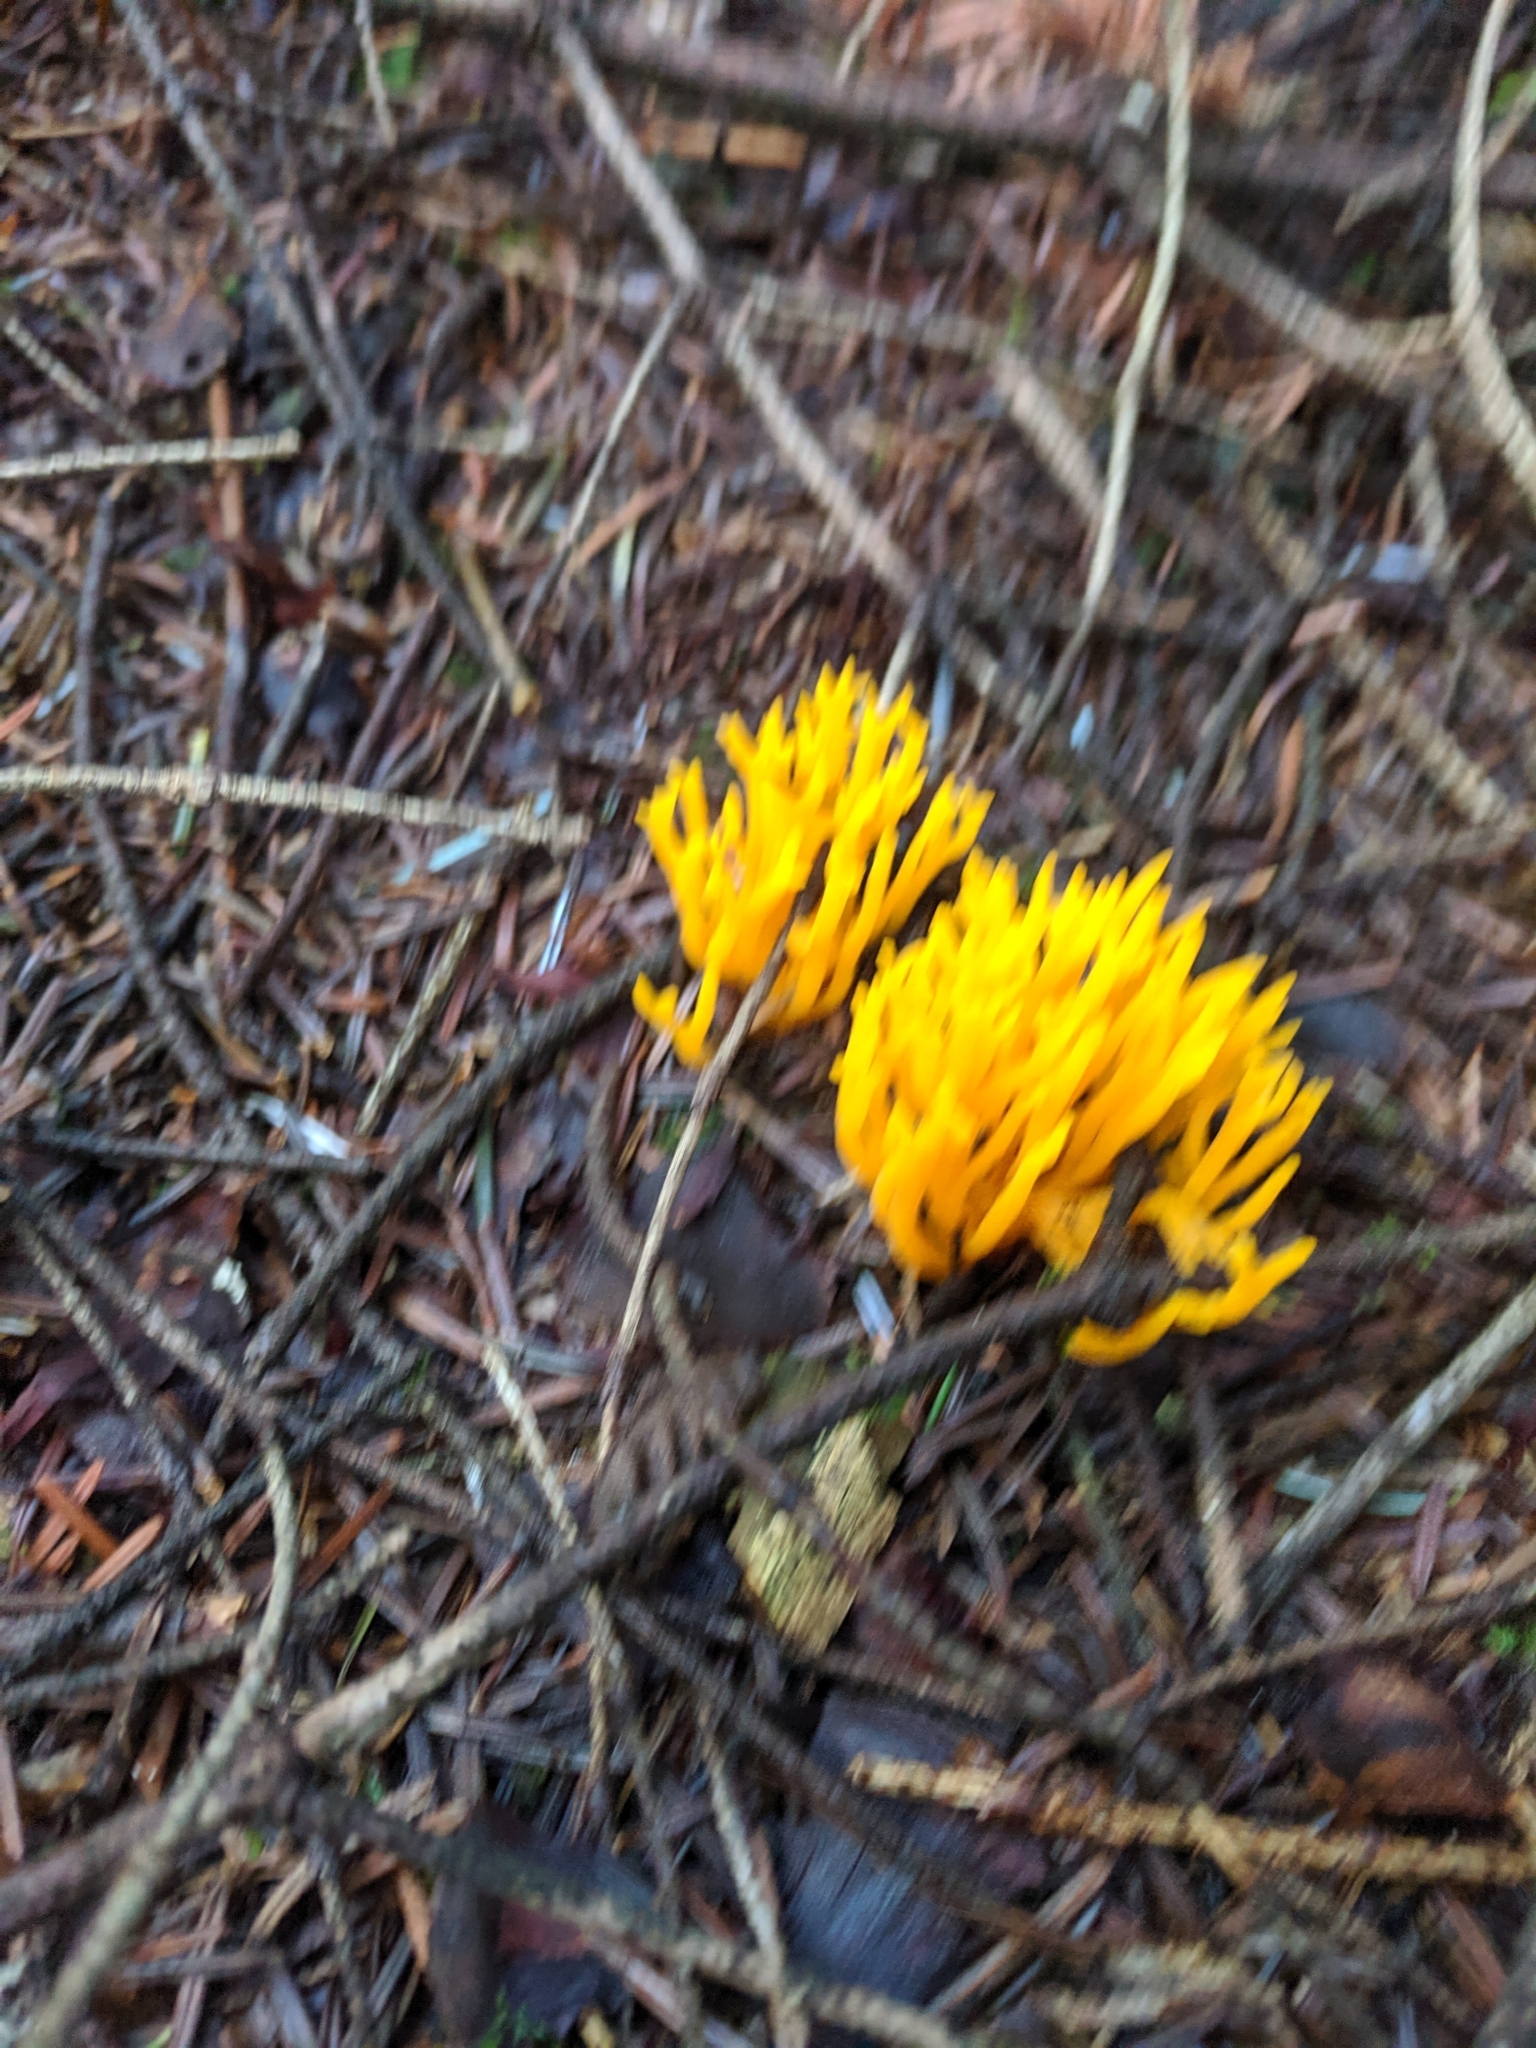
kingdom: Fungi
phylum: Basidiomycota
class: Dacrymycetes
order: Dacrymycetales
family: Dacrymycetaceae
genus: Calocera
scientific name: Calocera viscosa
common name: Yellow stagshorn
